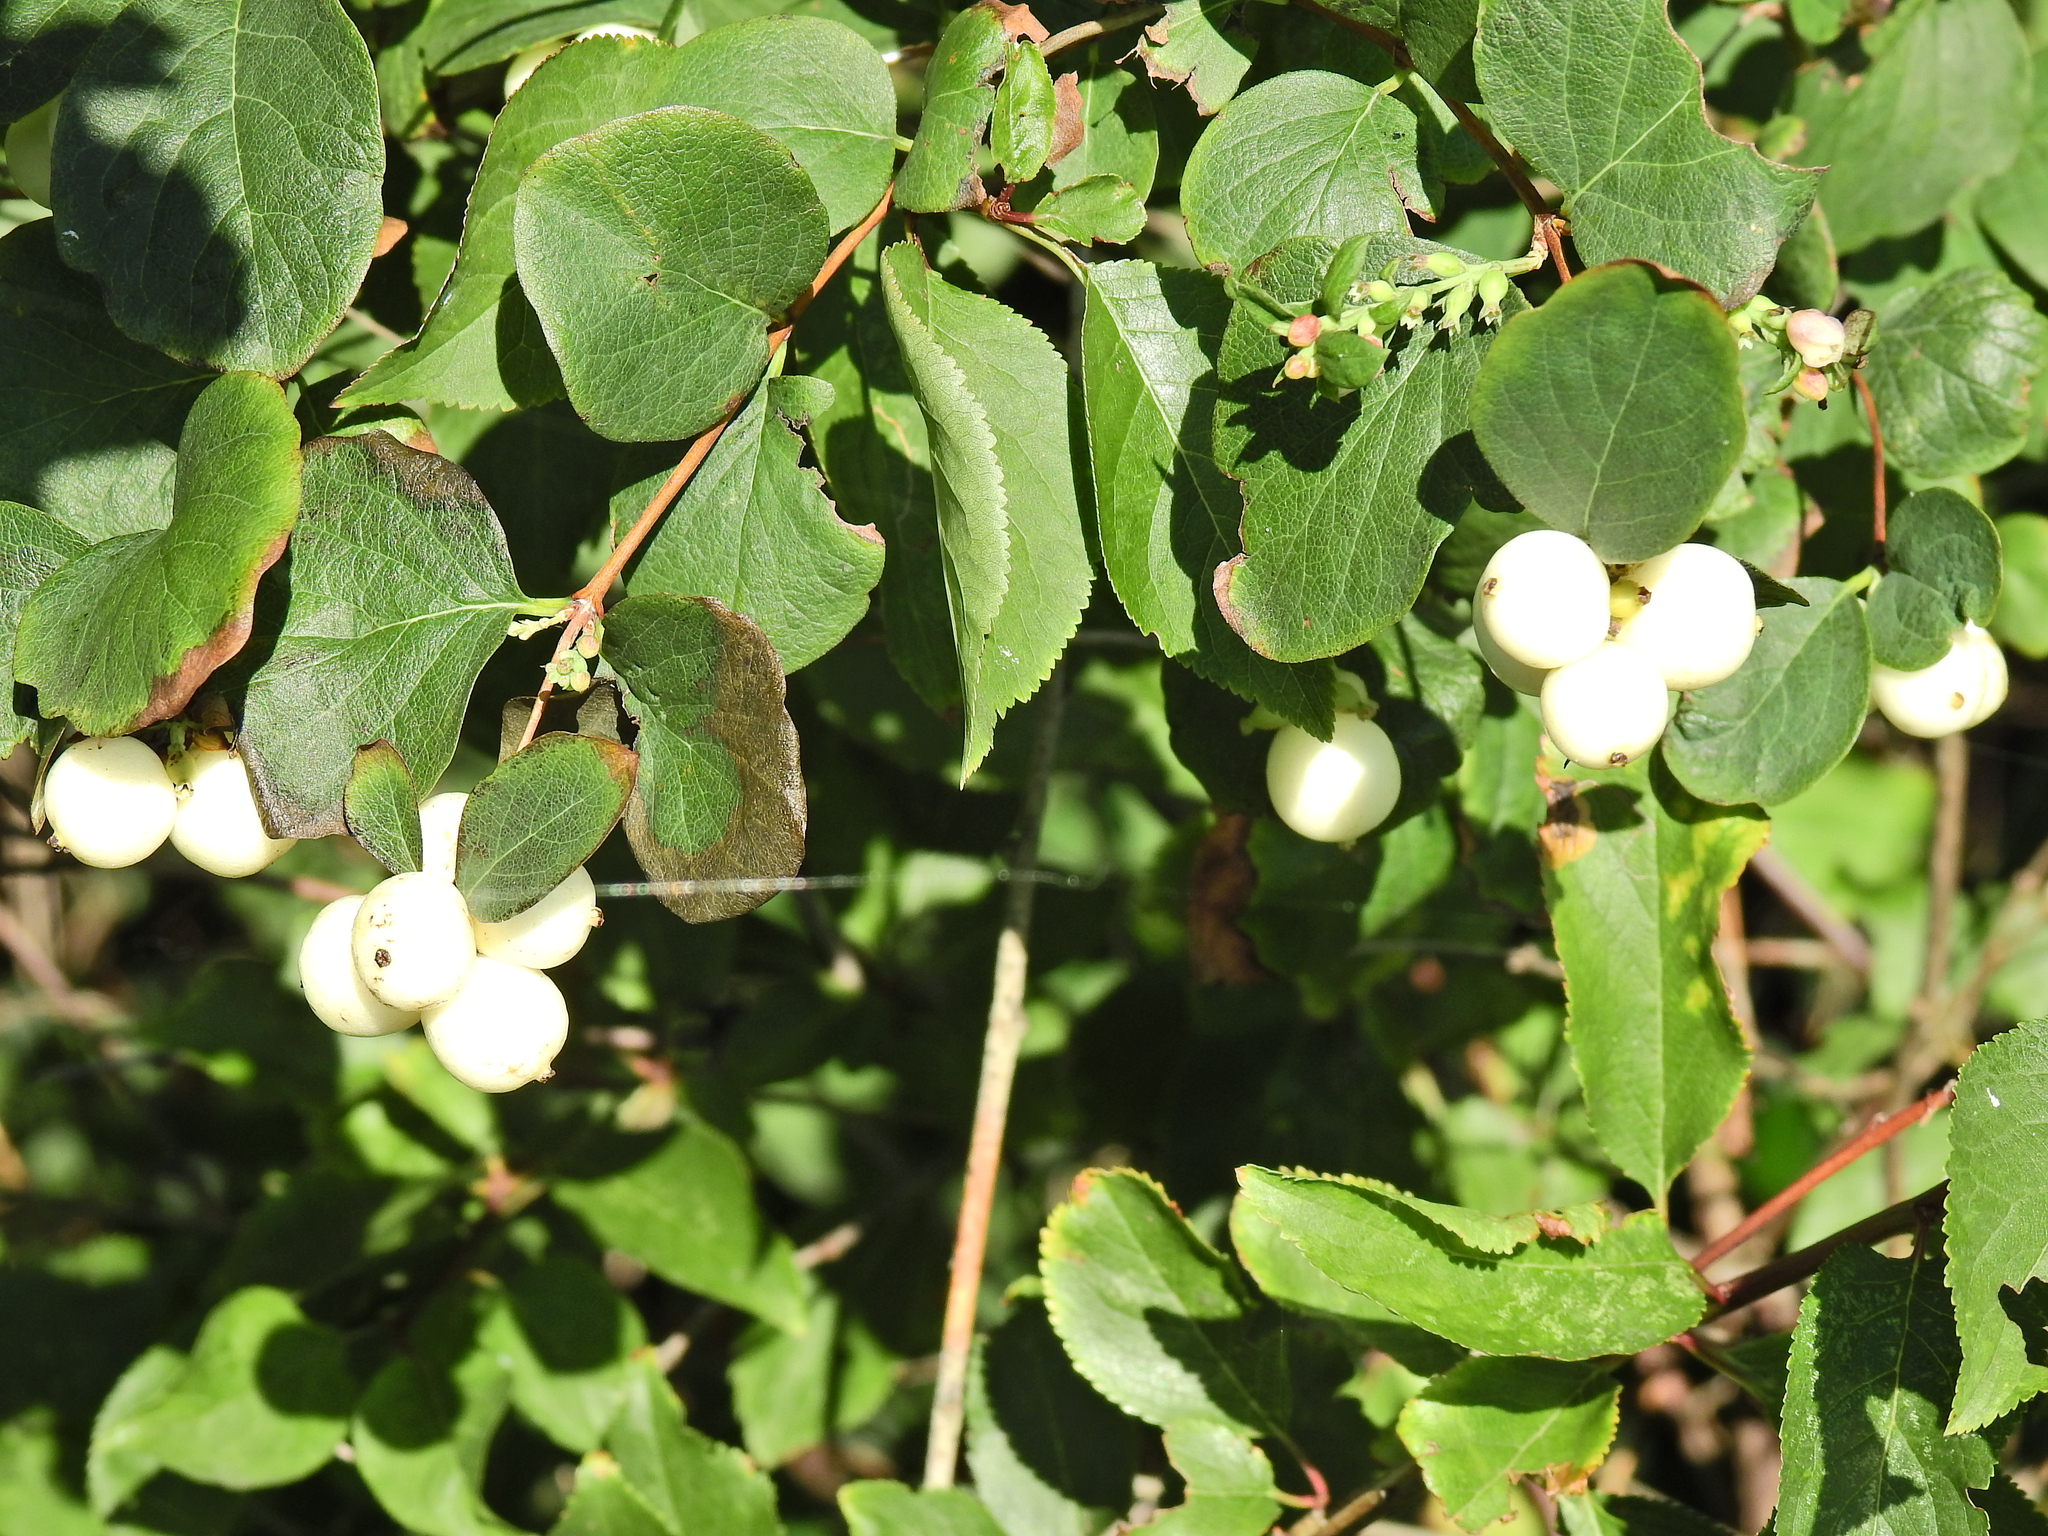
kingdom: Plantae
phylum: Tracheophyta
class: Magnoliopsida
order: Dipsacales
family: Caprifoliaceae
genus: Symphoricarpos
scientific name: Symphoricarpos albus
